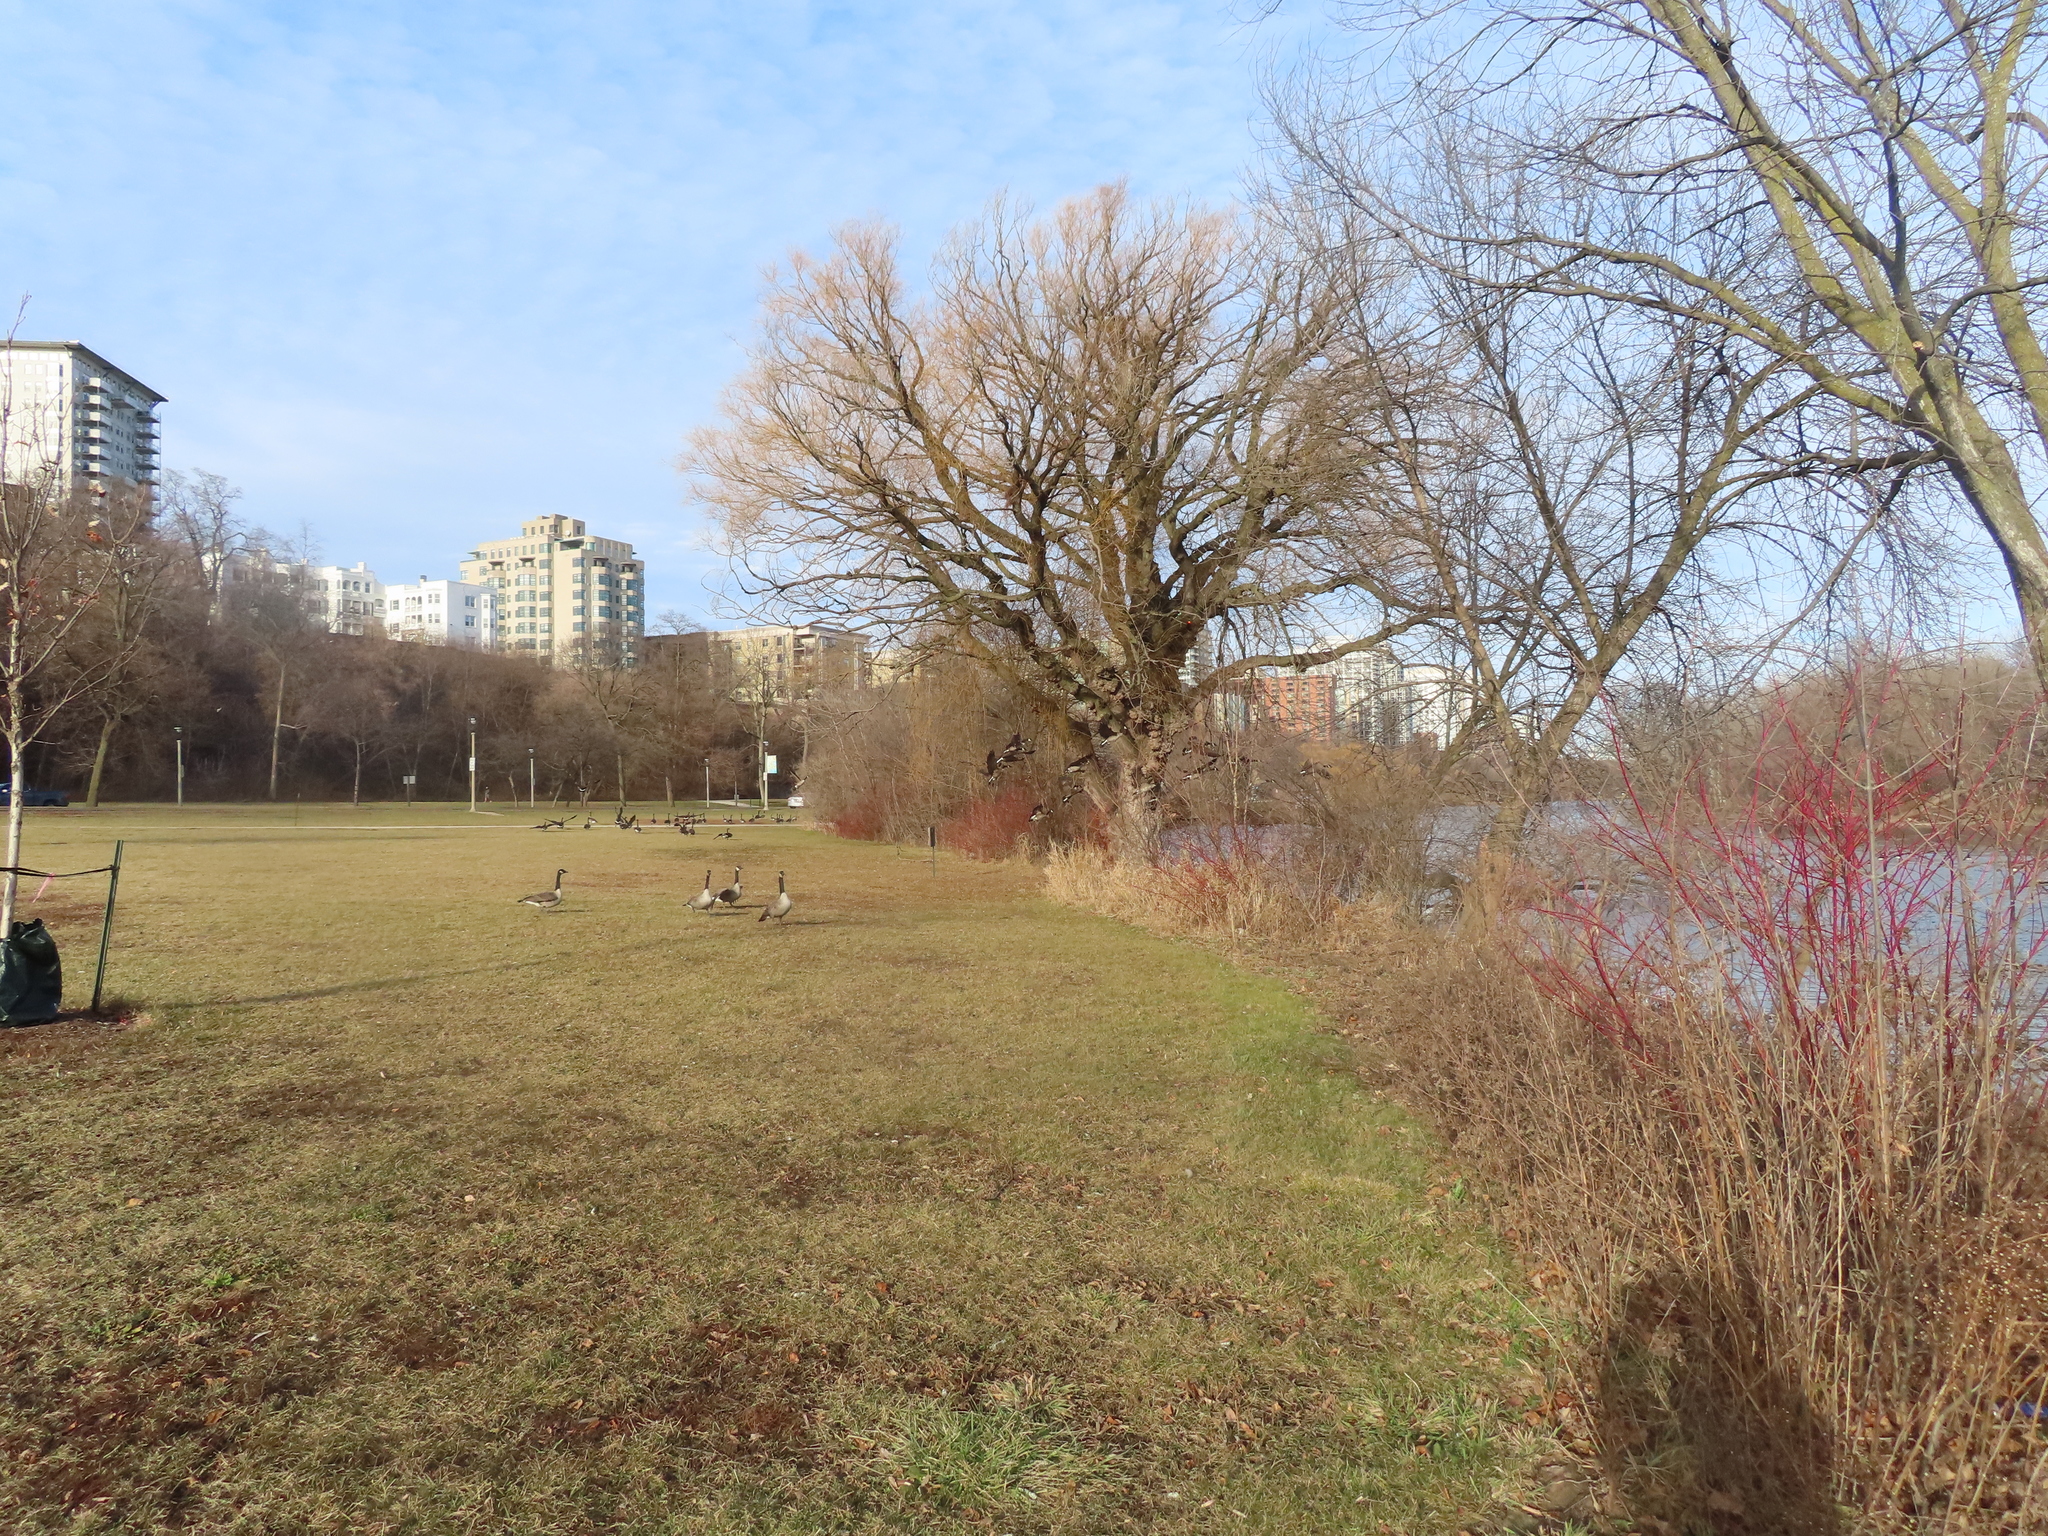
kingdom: Animalia
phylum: Chordata
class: Aves
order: Anseriformes
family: Anatidae
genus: Branta
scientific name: Branta canadensis
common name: Canada goose
